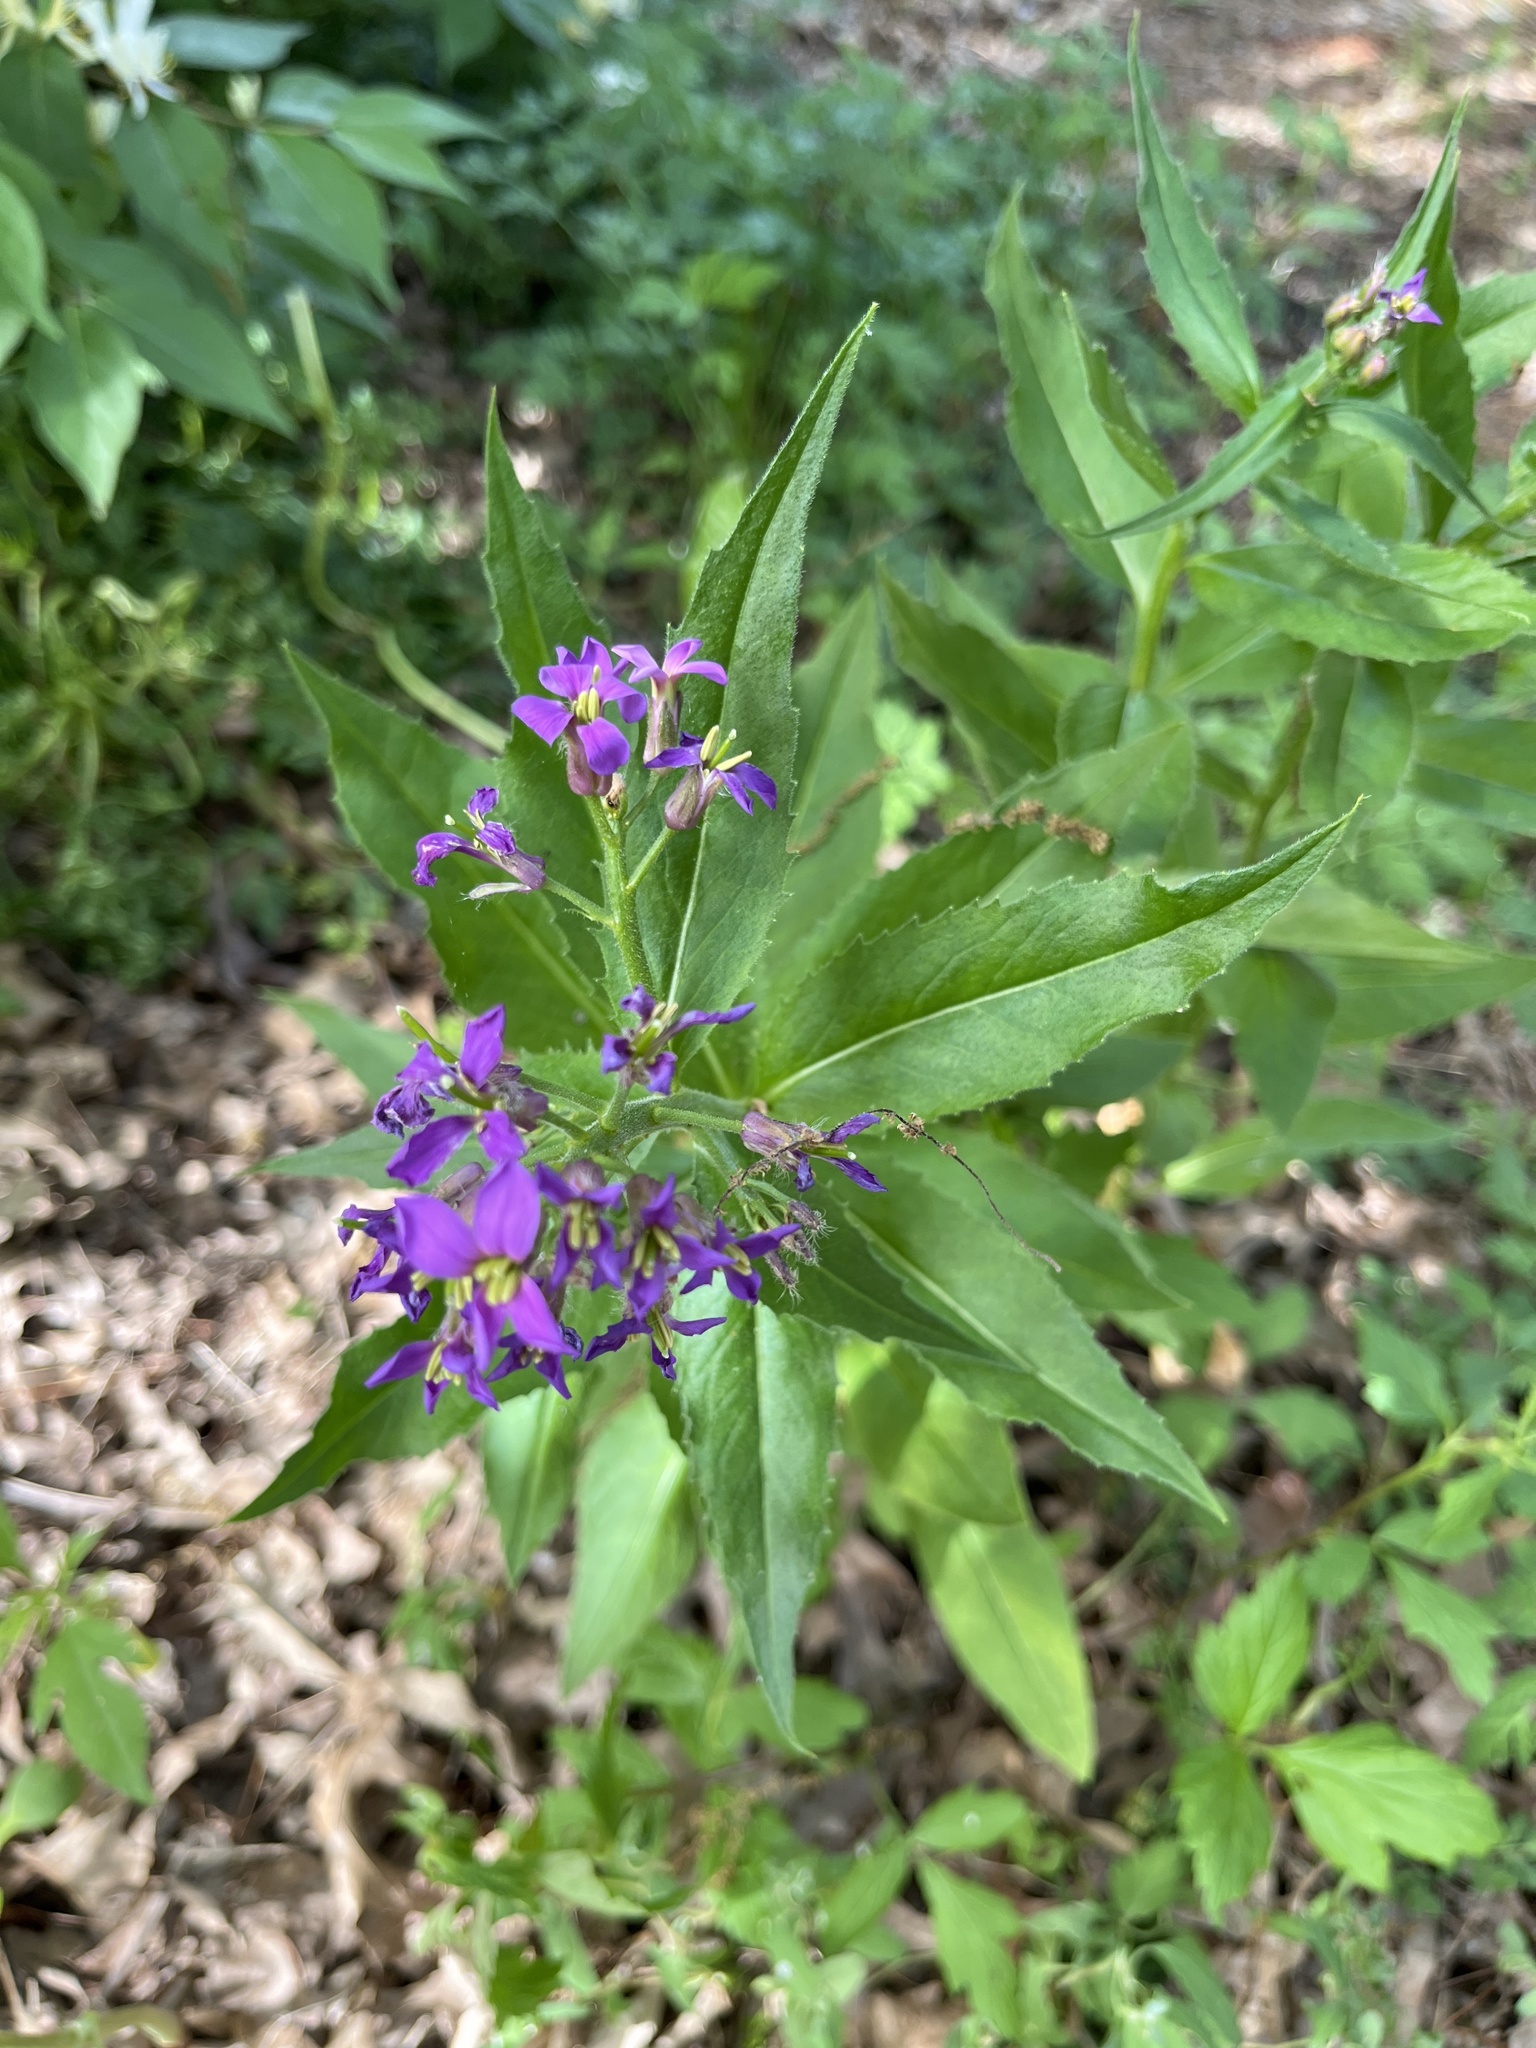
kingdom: Plantae
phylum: Tracheophyta
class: Magnoliopsida
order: Brassicales
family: Brassicaceae
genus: Hesperis
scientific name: Hesperis matronalis
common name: Dame's-violet
